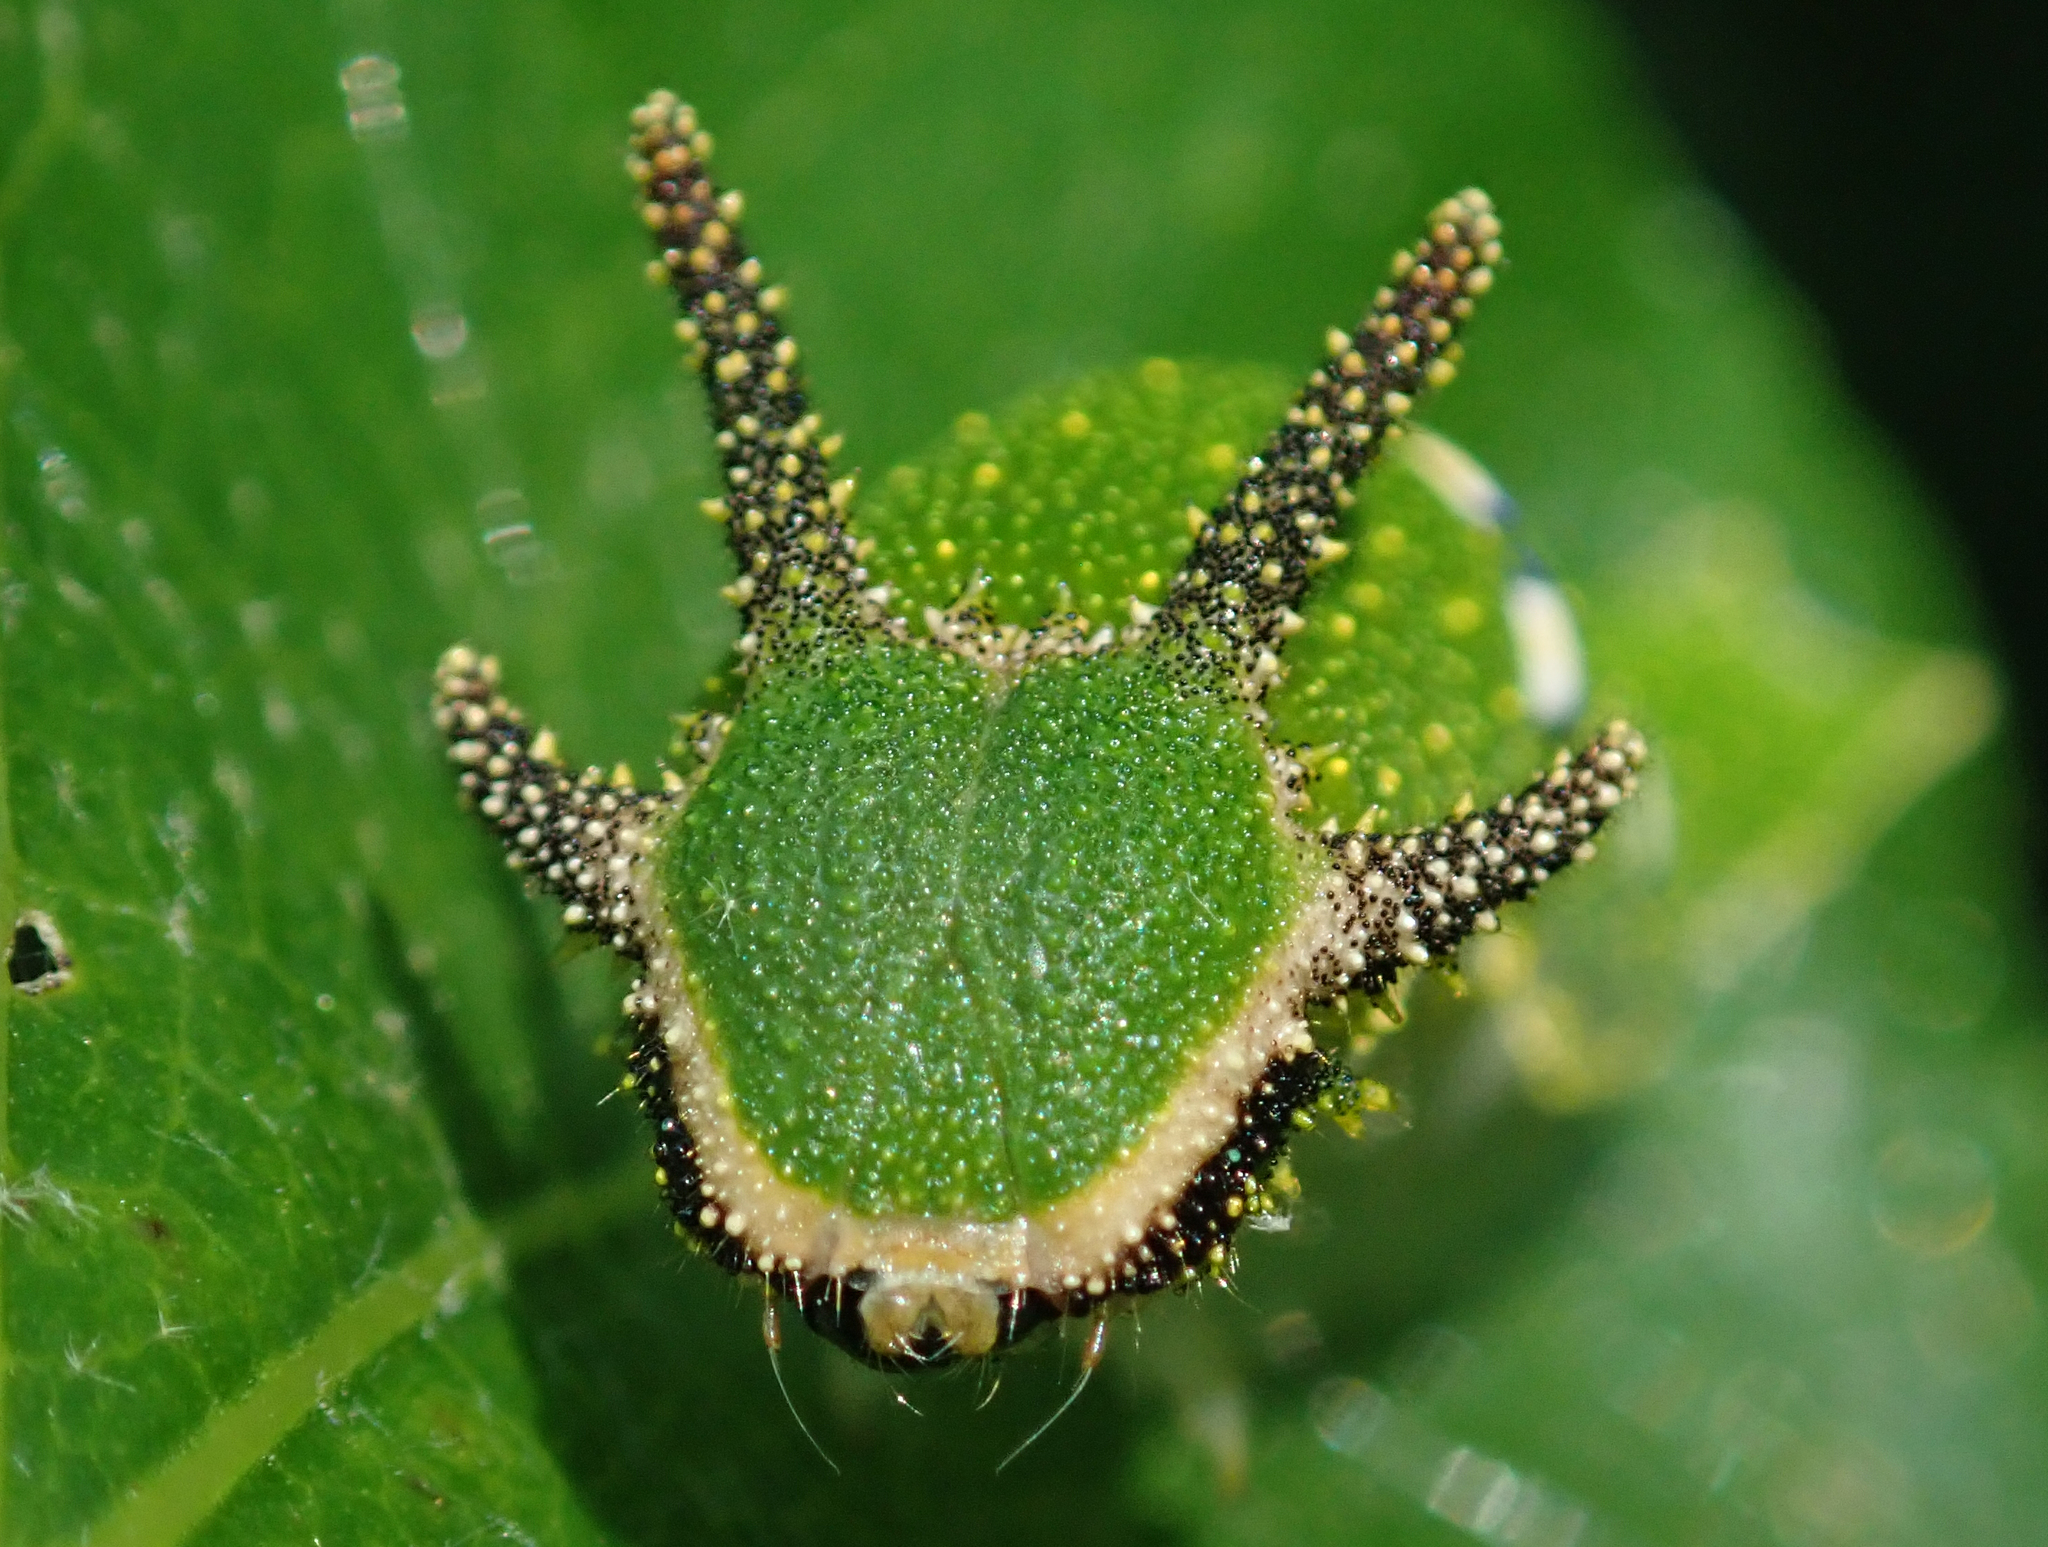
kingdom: Animalia
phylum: Arthropoda
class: Insecta
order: Lepidoptera
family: Nymphalidae
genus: Charaxes
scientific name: Charaxes candiope
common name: Green-veined charaxes
